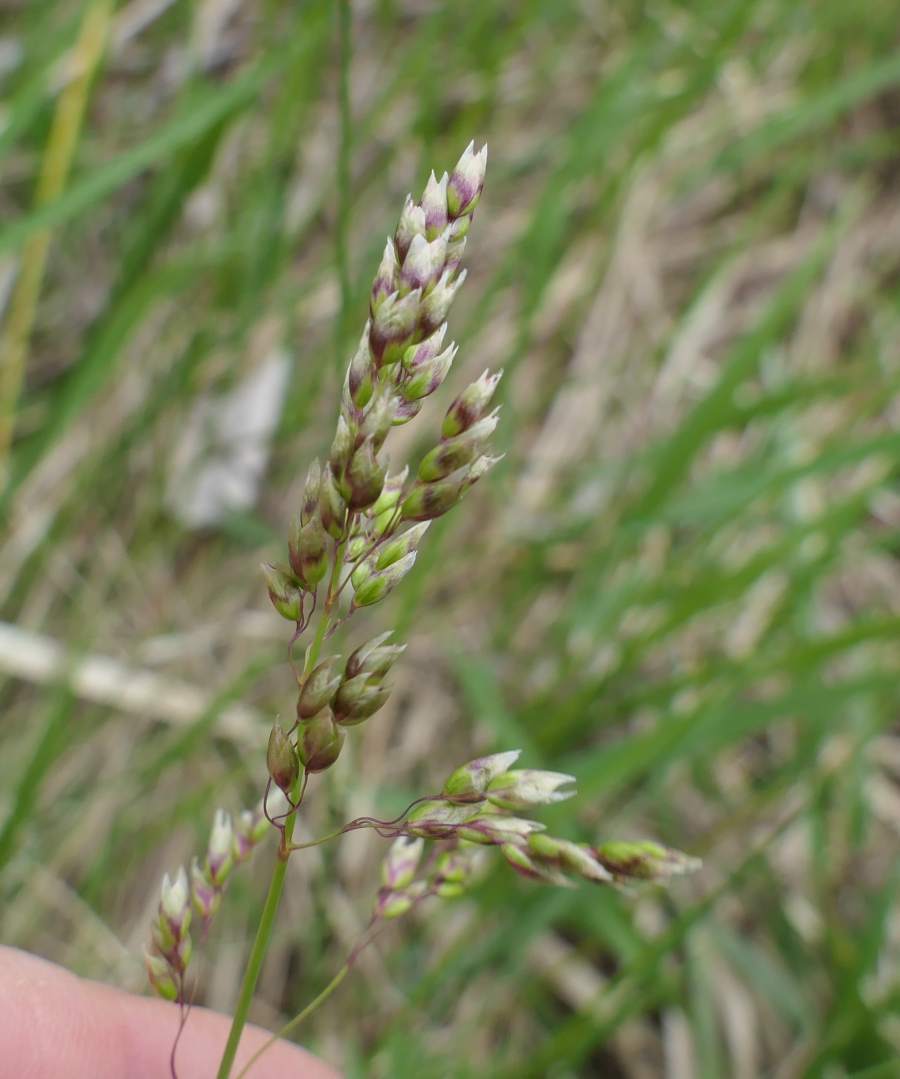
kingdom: Plantae
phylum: Tracheophyta
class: Liliopsida
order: Poales
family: Poaceae
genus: Anthoxanthum
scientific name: Anthoxanthum nitens
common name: Holy grass
